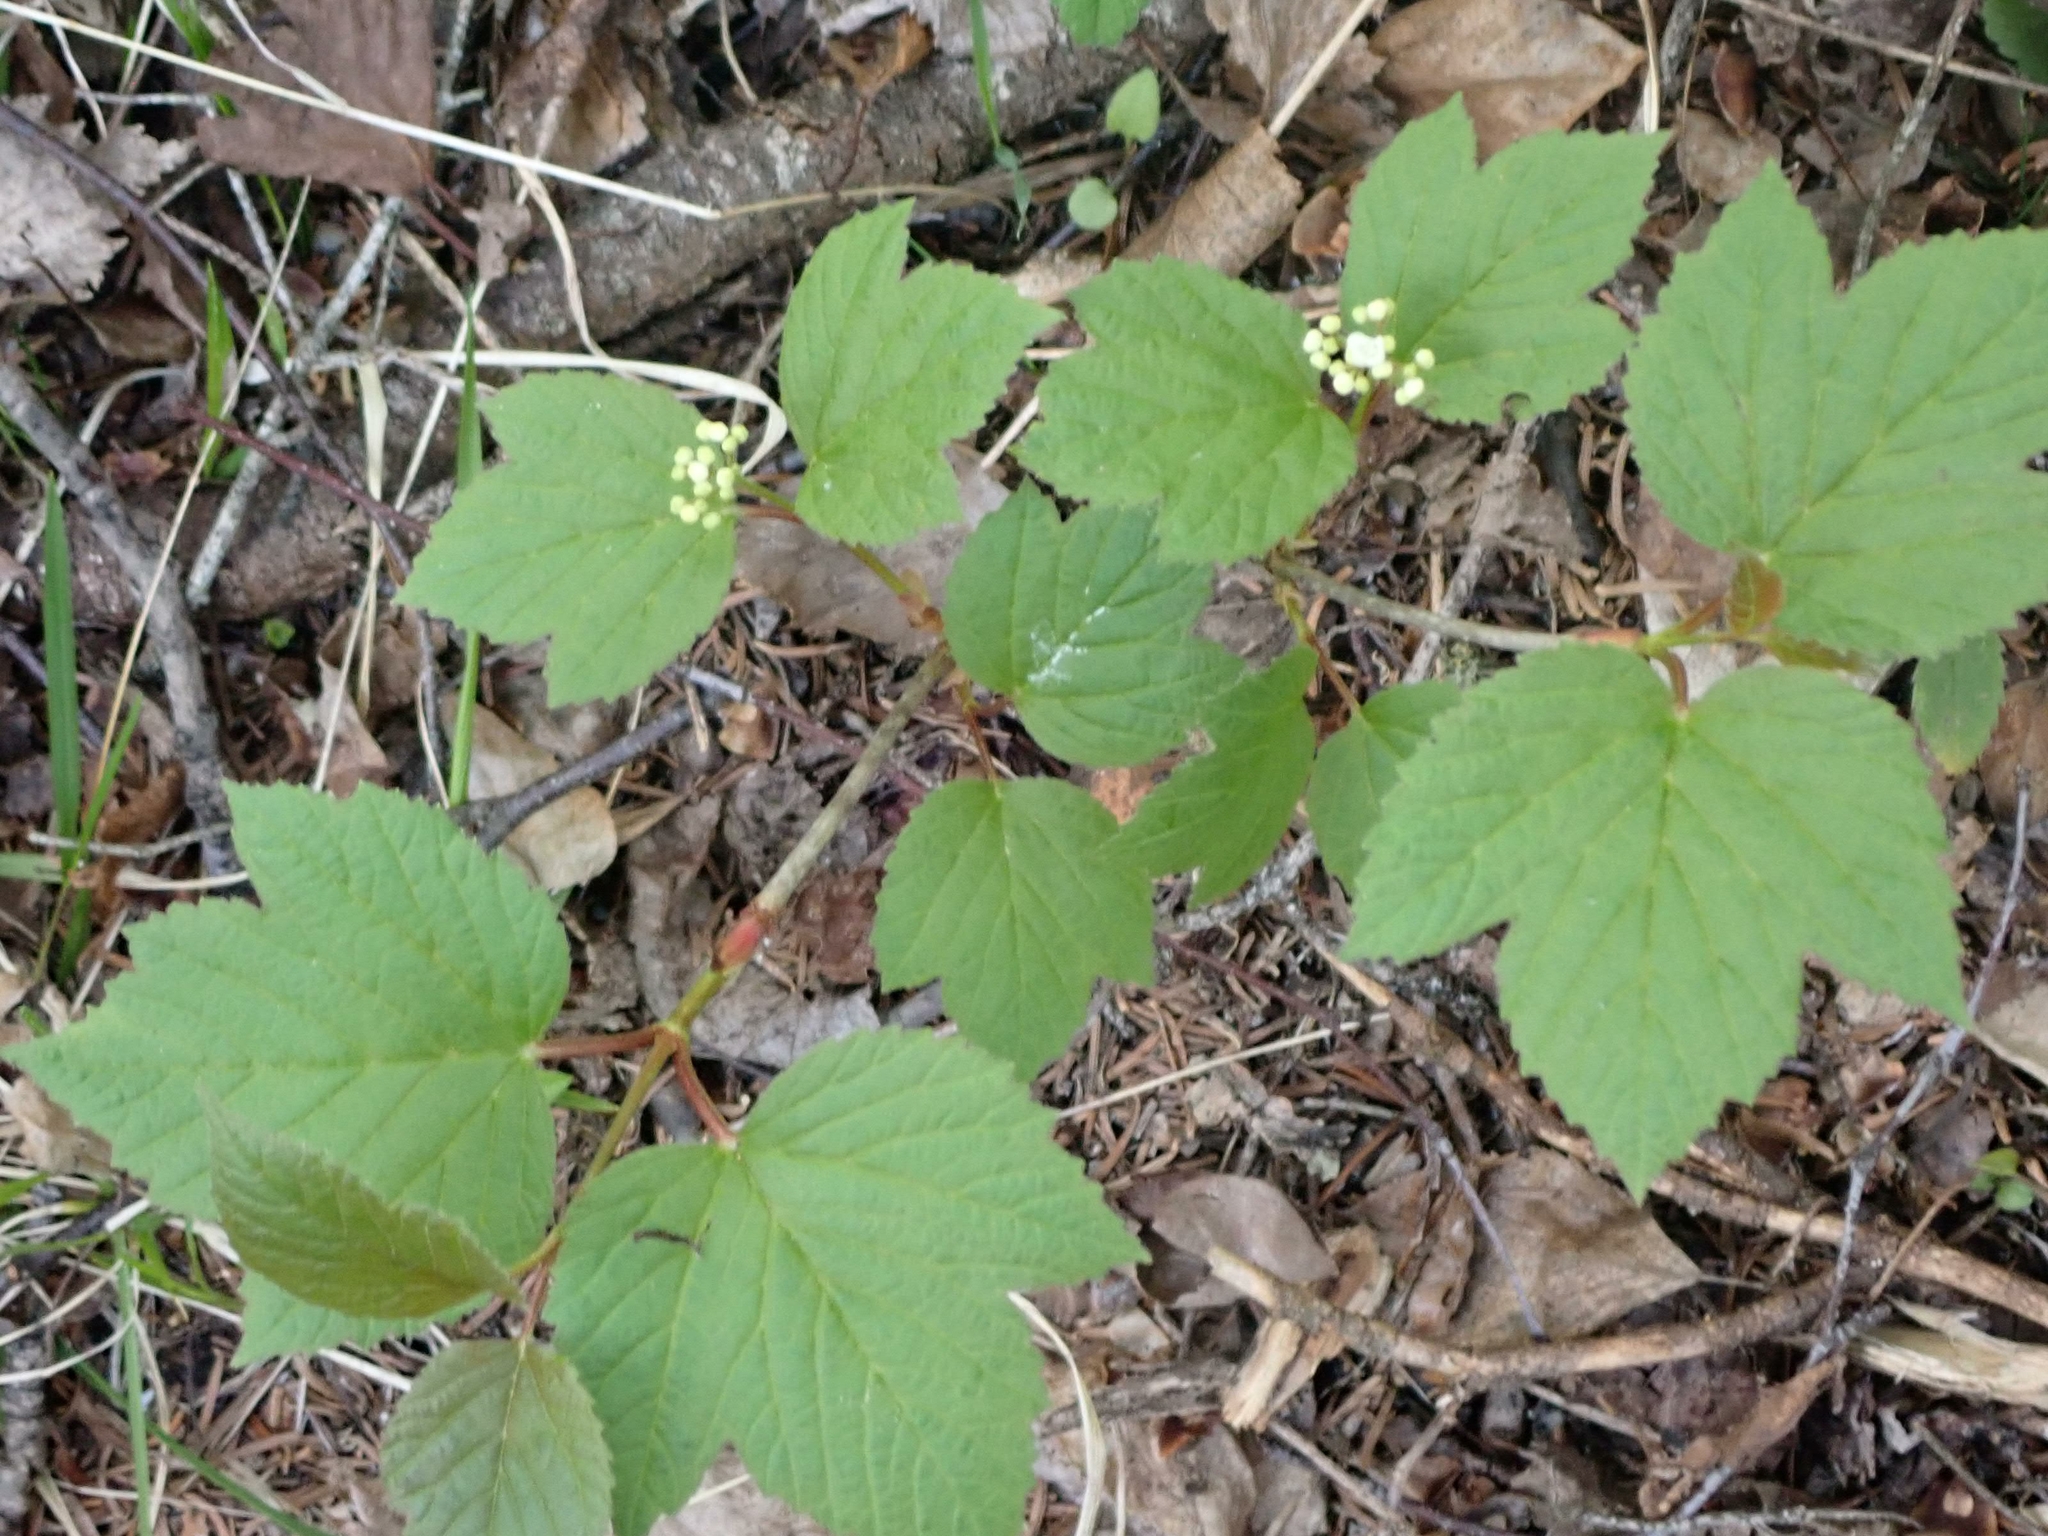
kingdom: Plantae
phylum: Tracheophyta
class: Magnoliopsida
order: Dipsacales
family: Viburnaceae
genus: Viburnum
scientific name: Viburnum edule
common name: Mooseberry
